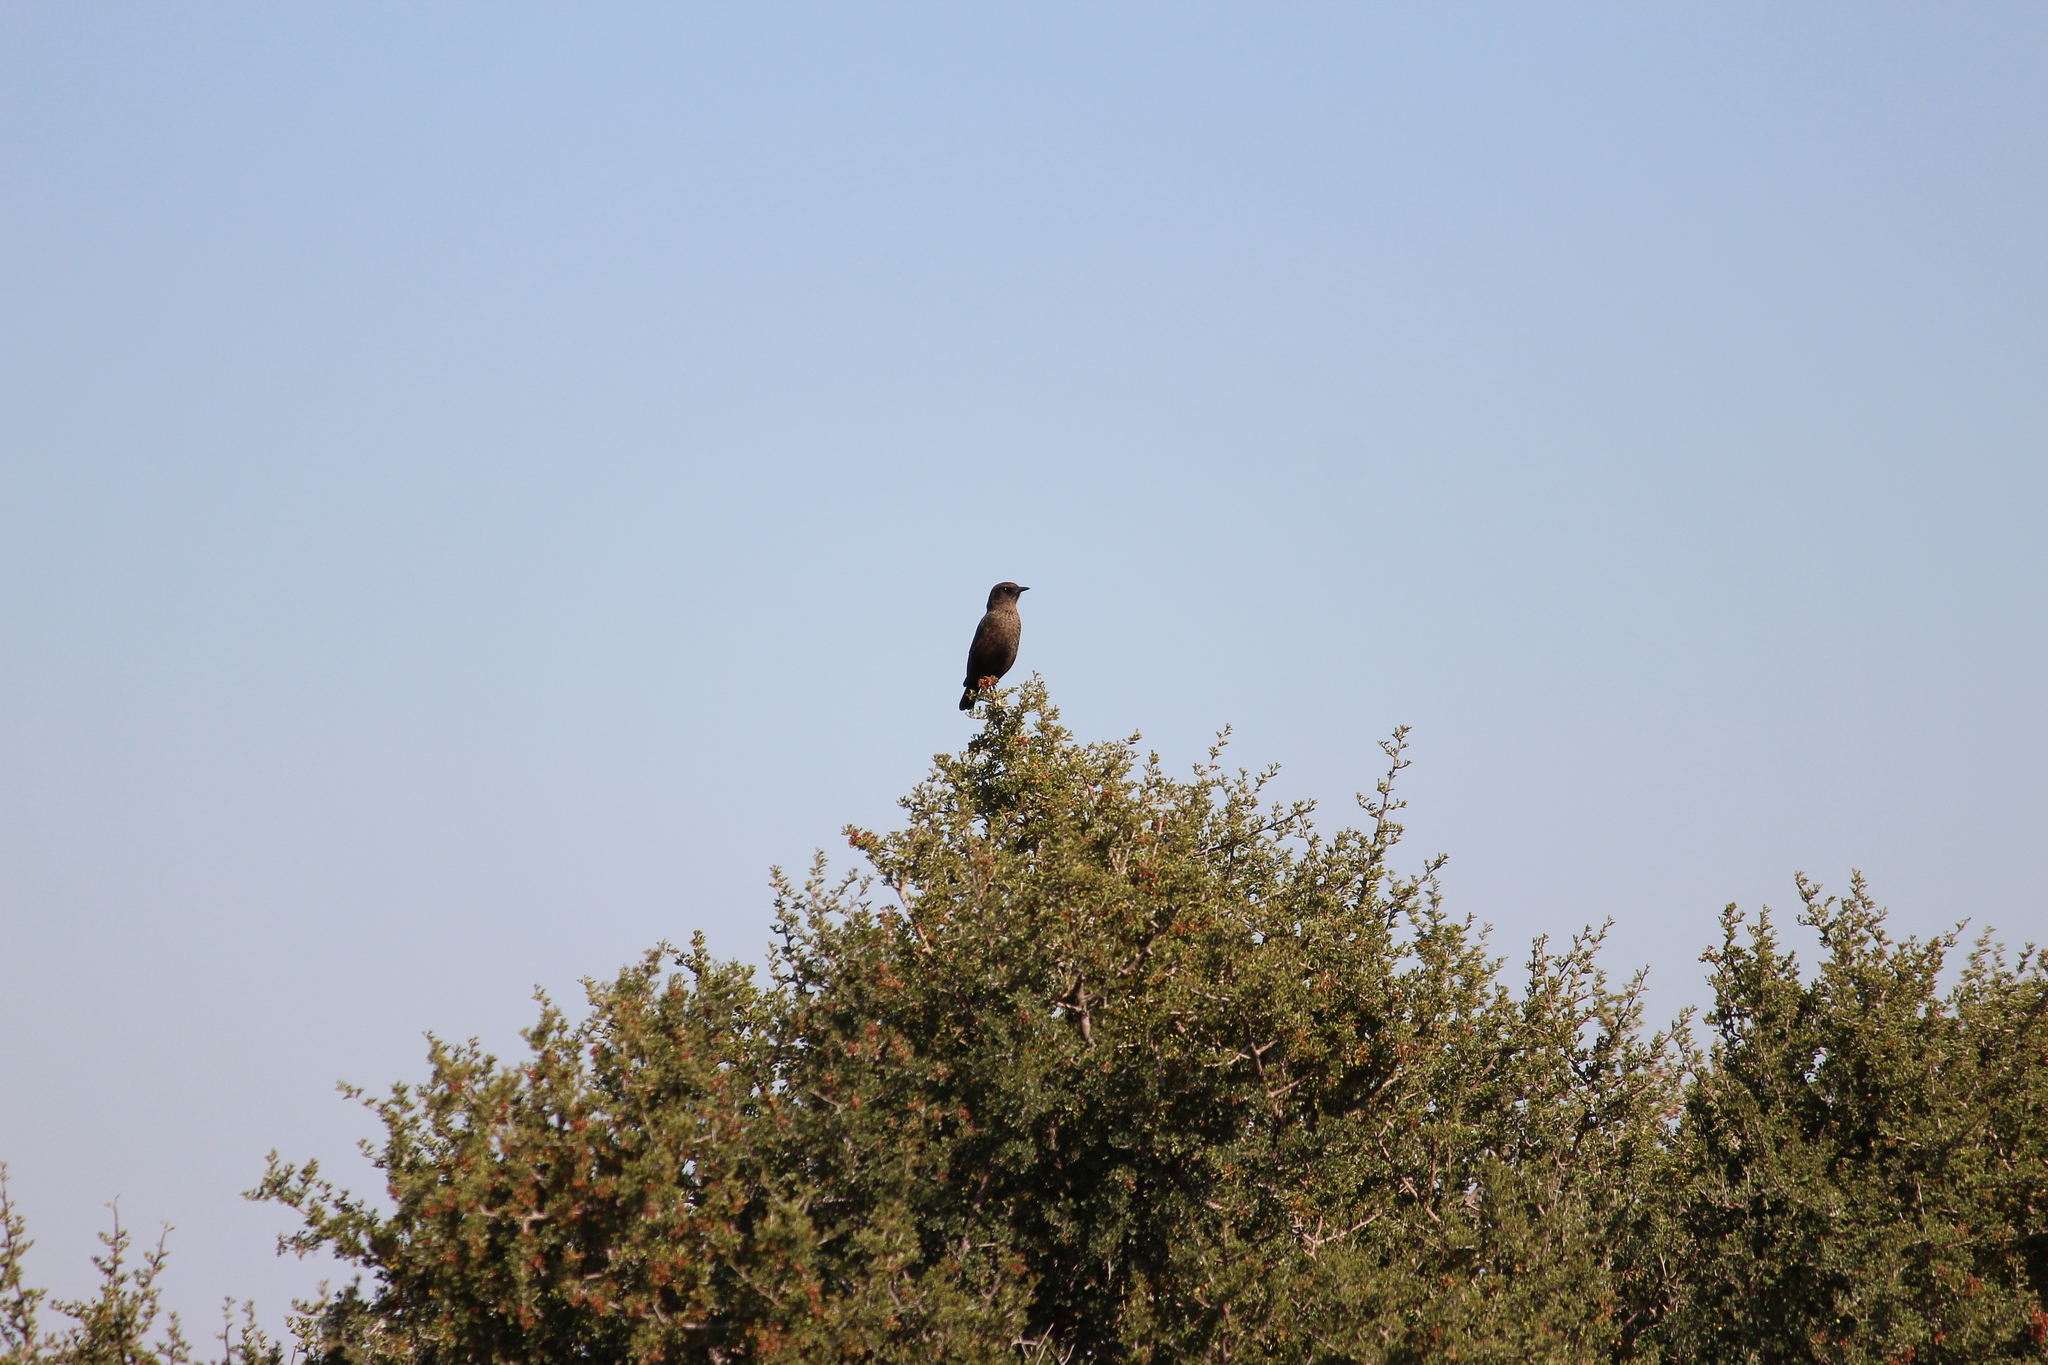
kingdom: Animalia
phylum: Chordata
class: Aves
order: Passeriformes
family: Muscicapidae
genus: Myrmecocichla
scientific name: Myrmecocichla formicivora
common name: Ant-eating chat
